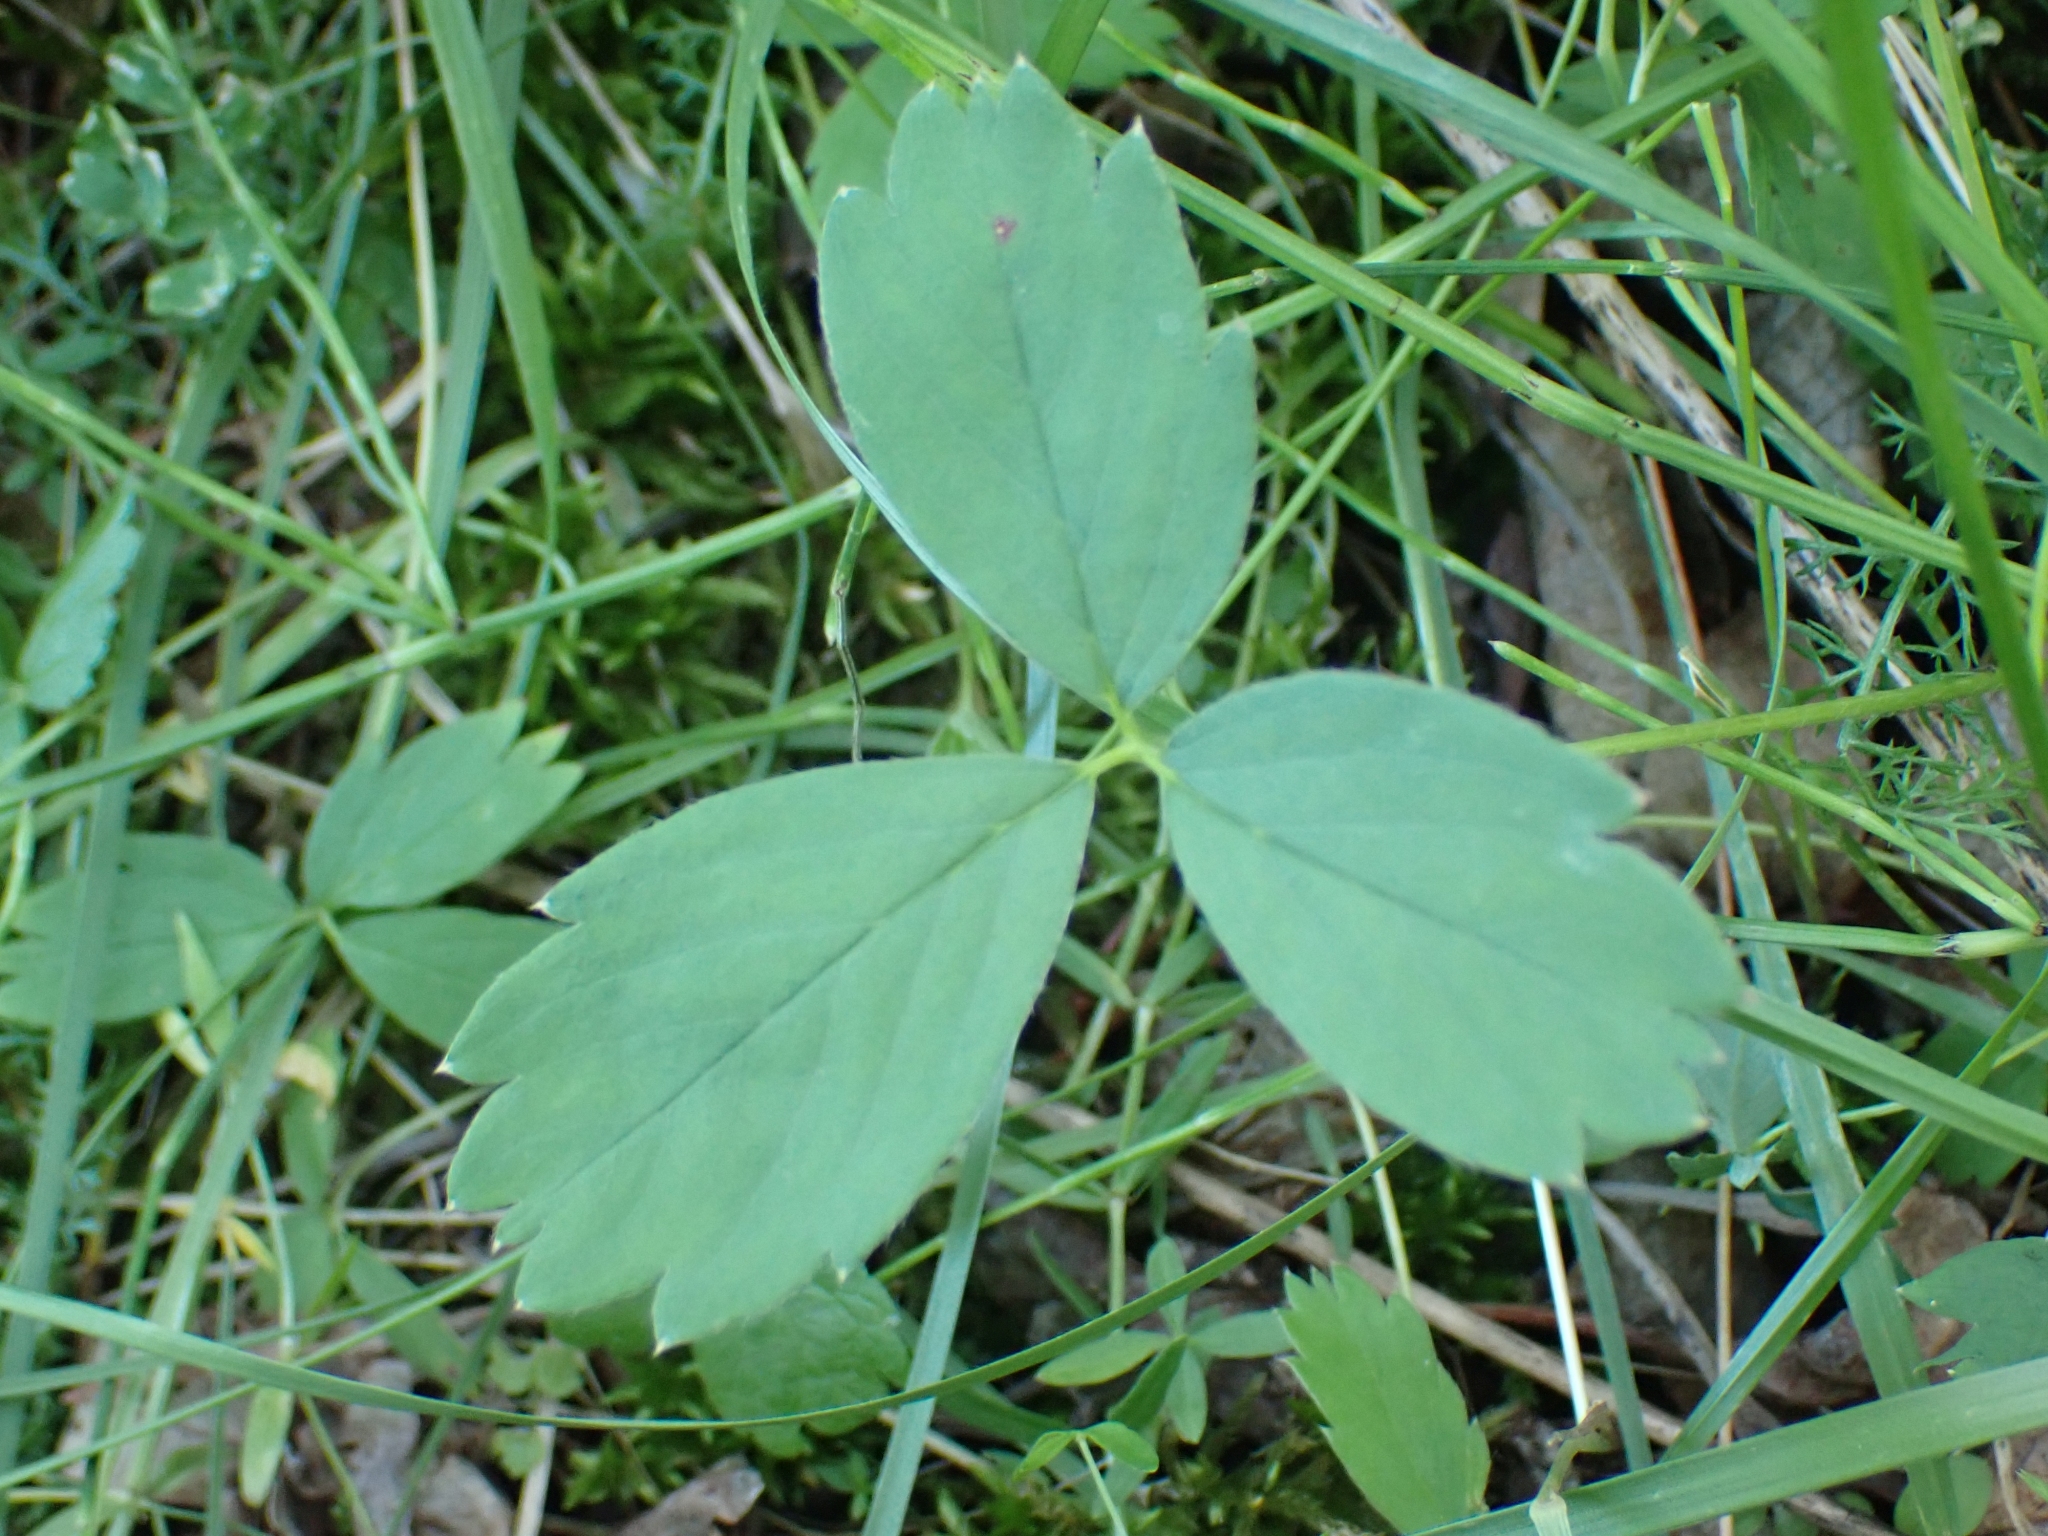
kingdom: Plantae
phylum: Tracheophyta
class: Magnoliopsida
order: Rosales
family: Rosaceae
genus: Fragaria
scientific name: Fragaria virginiana
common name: Thickleaved wild strawberry
